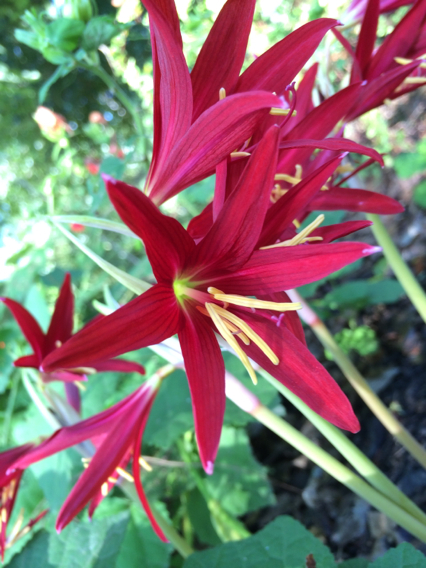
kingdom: Plantae
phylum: Tracheophyta
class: Liliopsida
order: Asparagales
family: Amaryllidaceae
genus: Zephyranthes
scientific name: Zephyranthes bifida
